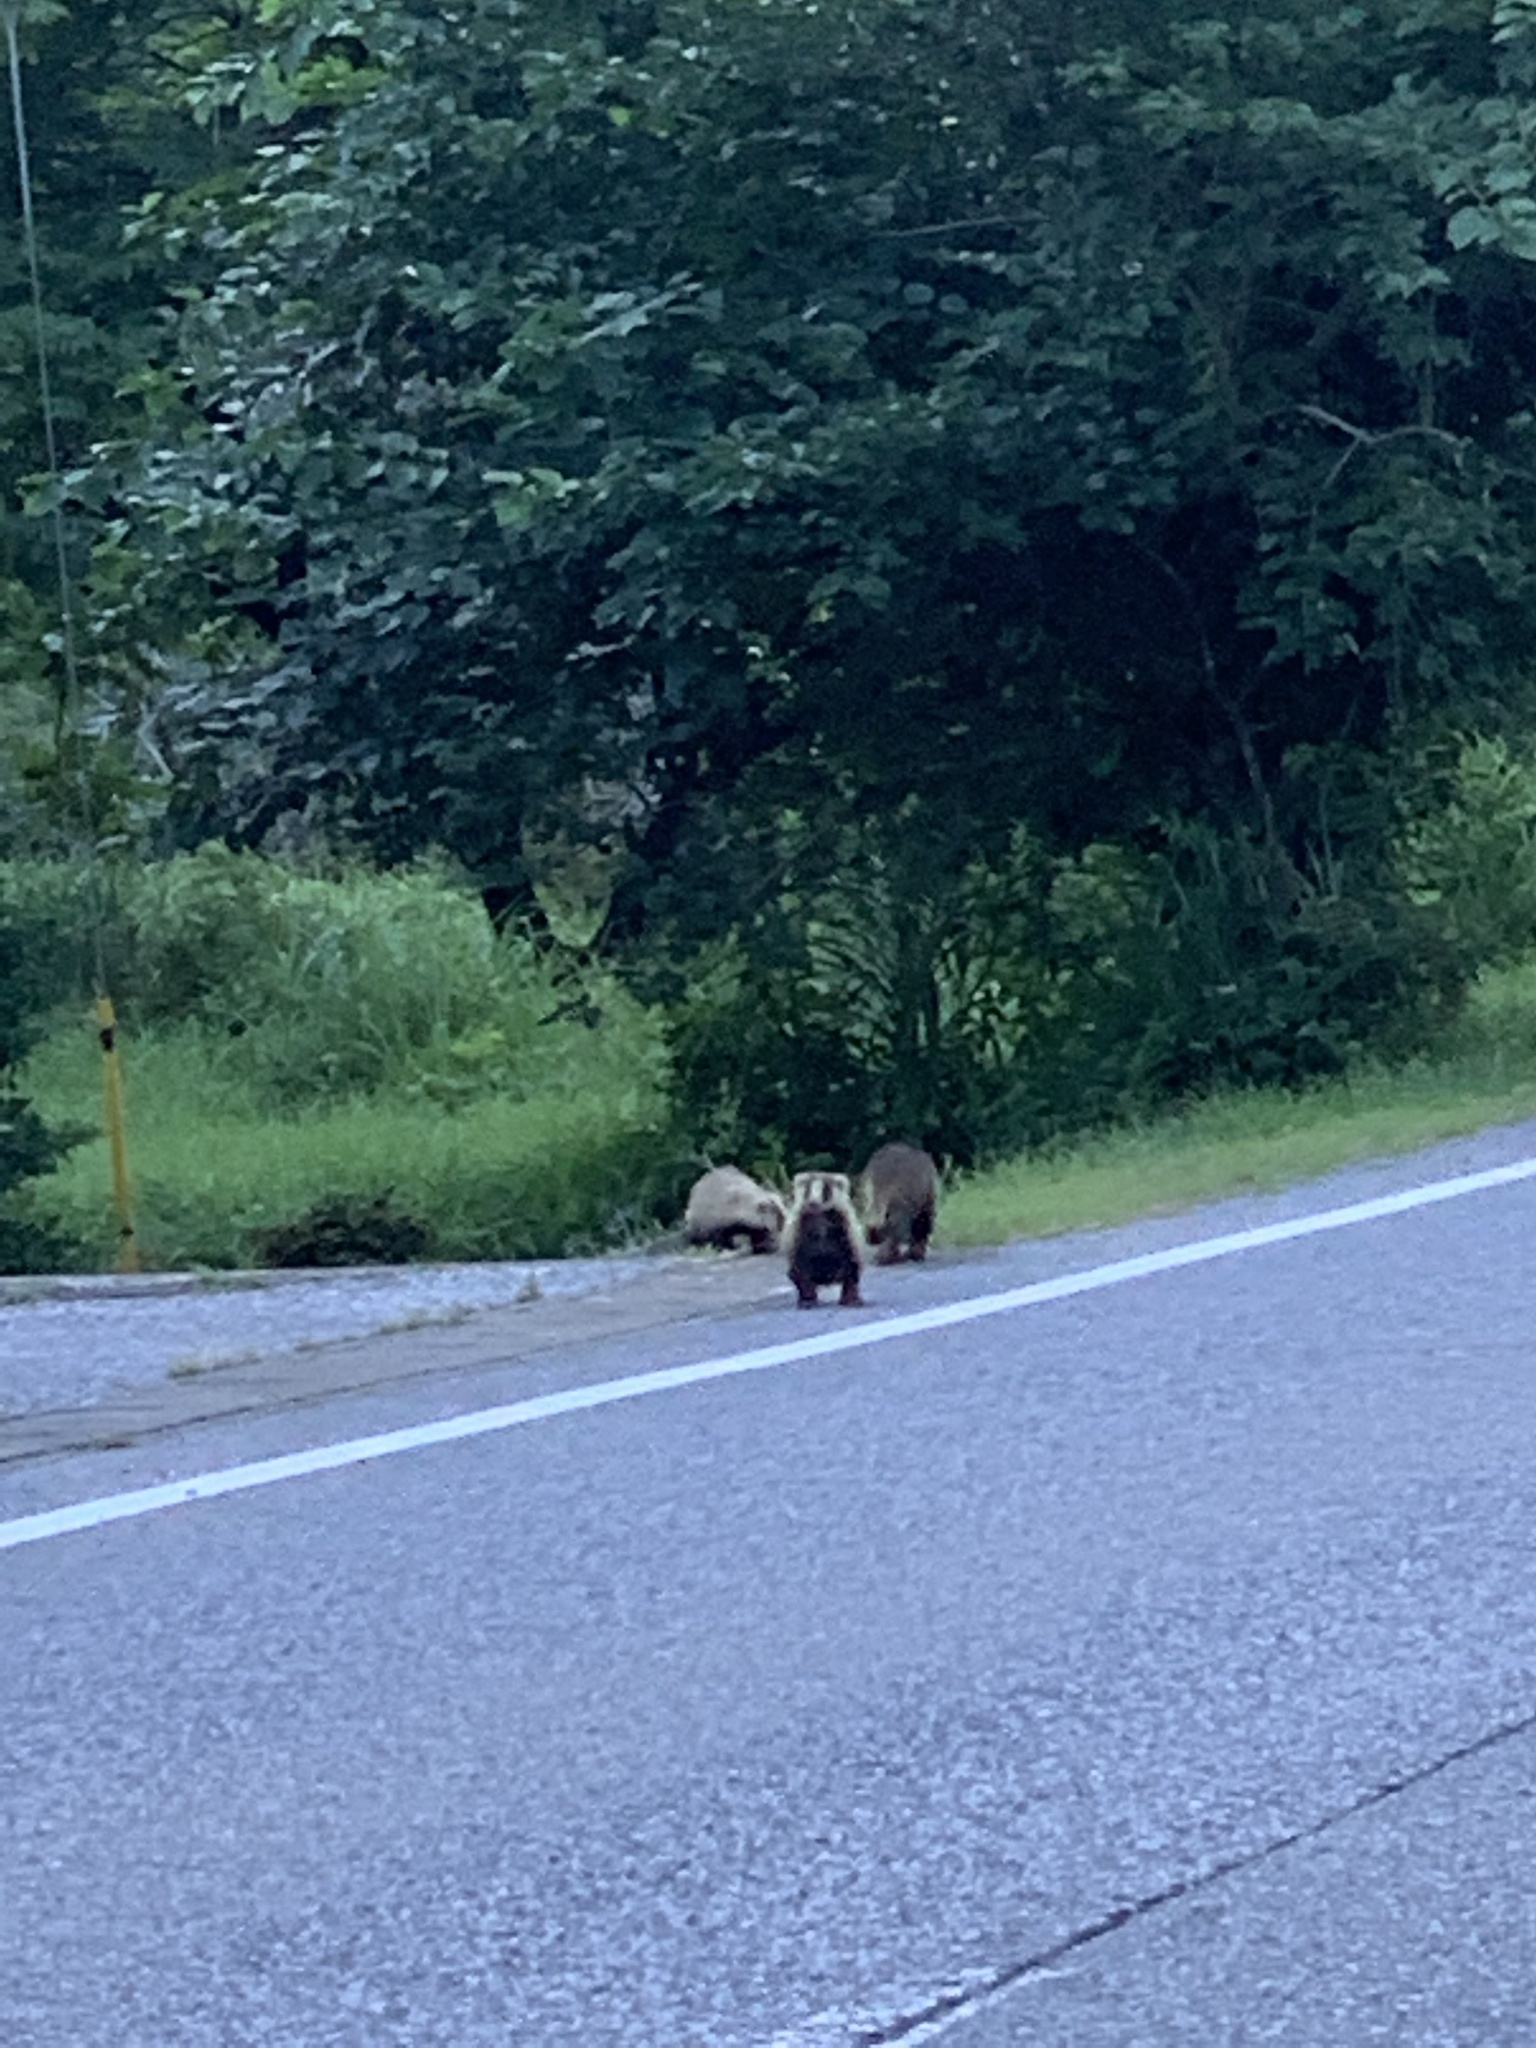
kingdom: Animalia
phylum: Chordata
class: Mammalia
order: Carnivora
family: Mustelidae
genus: Meles
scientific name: Meles anakuma
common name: Japanese badger
